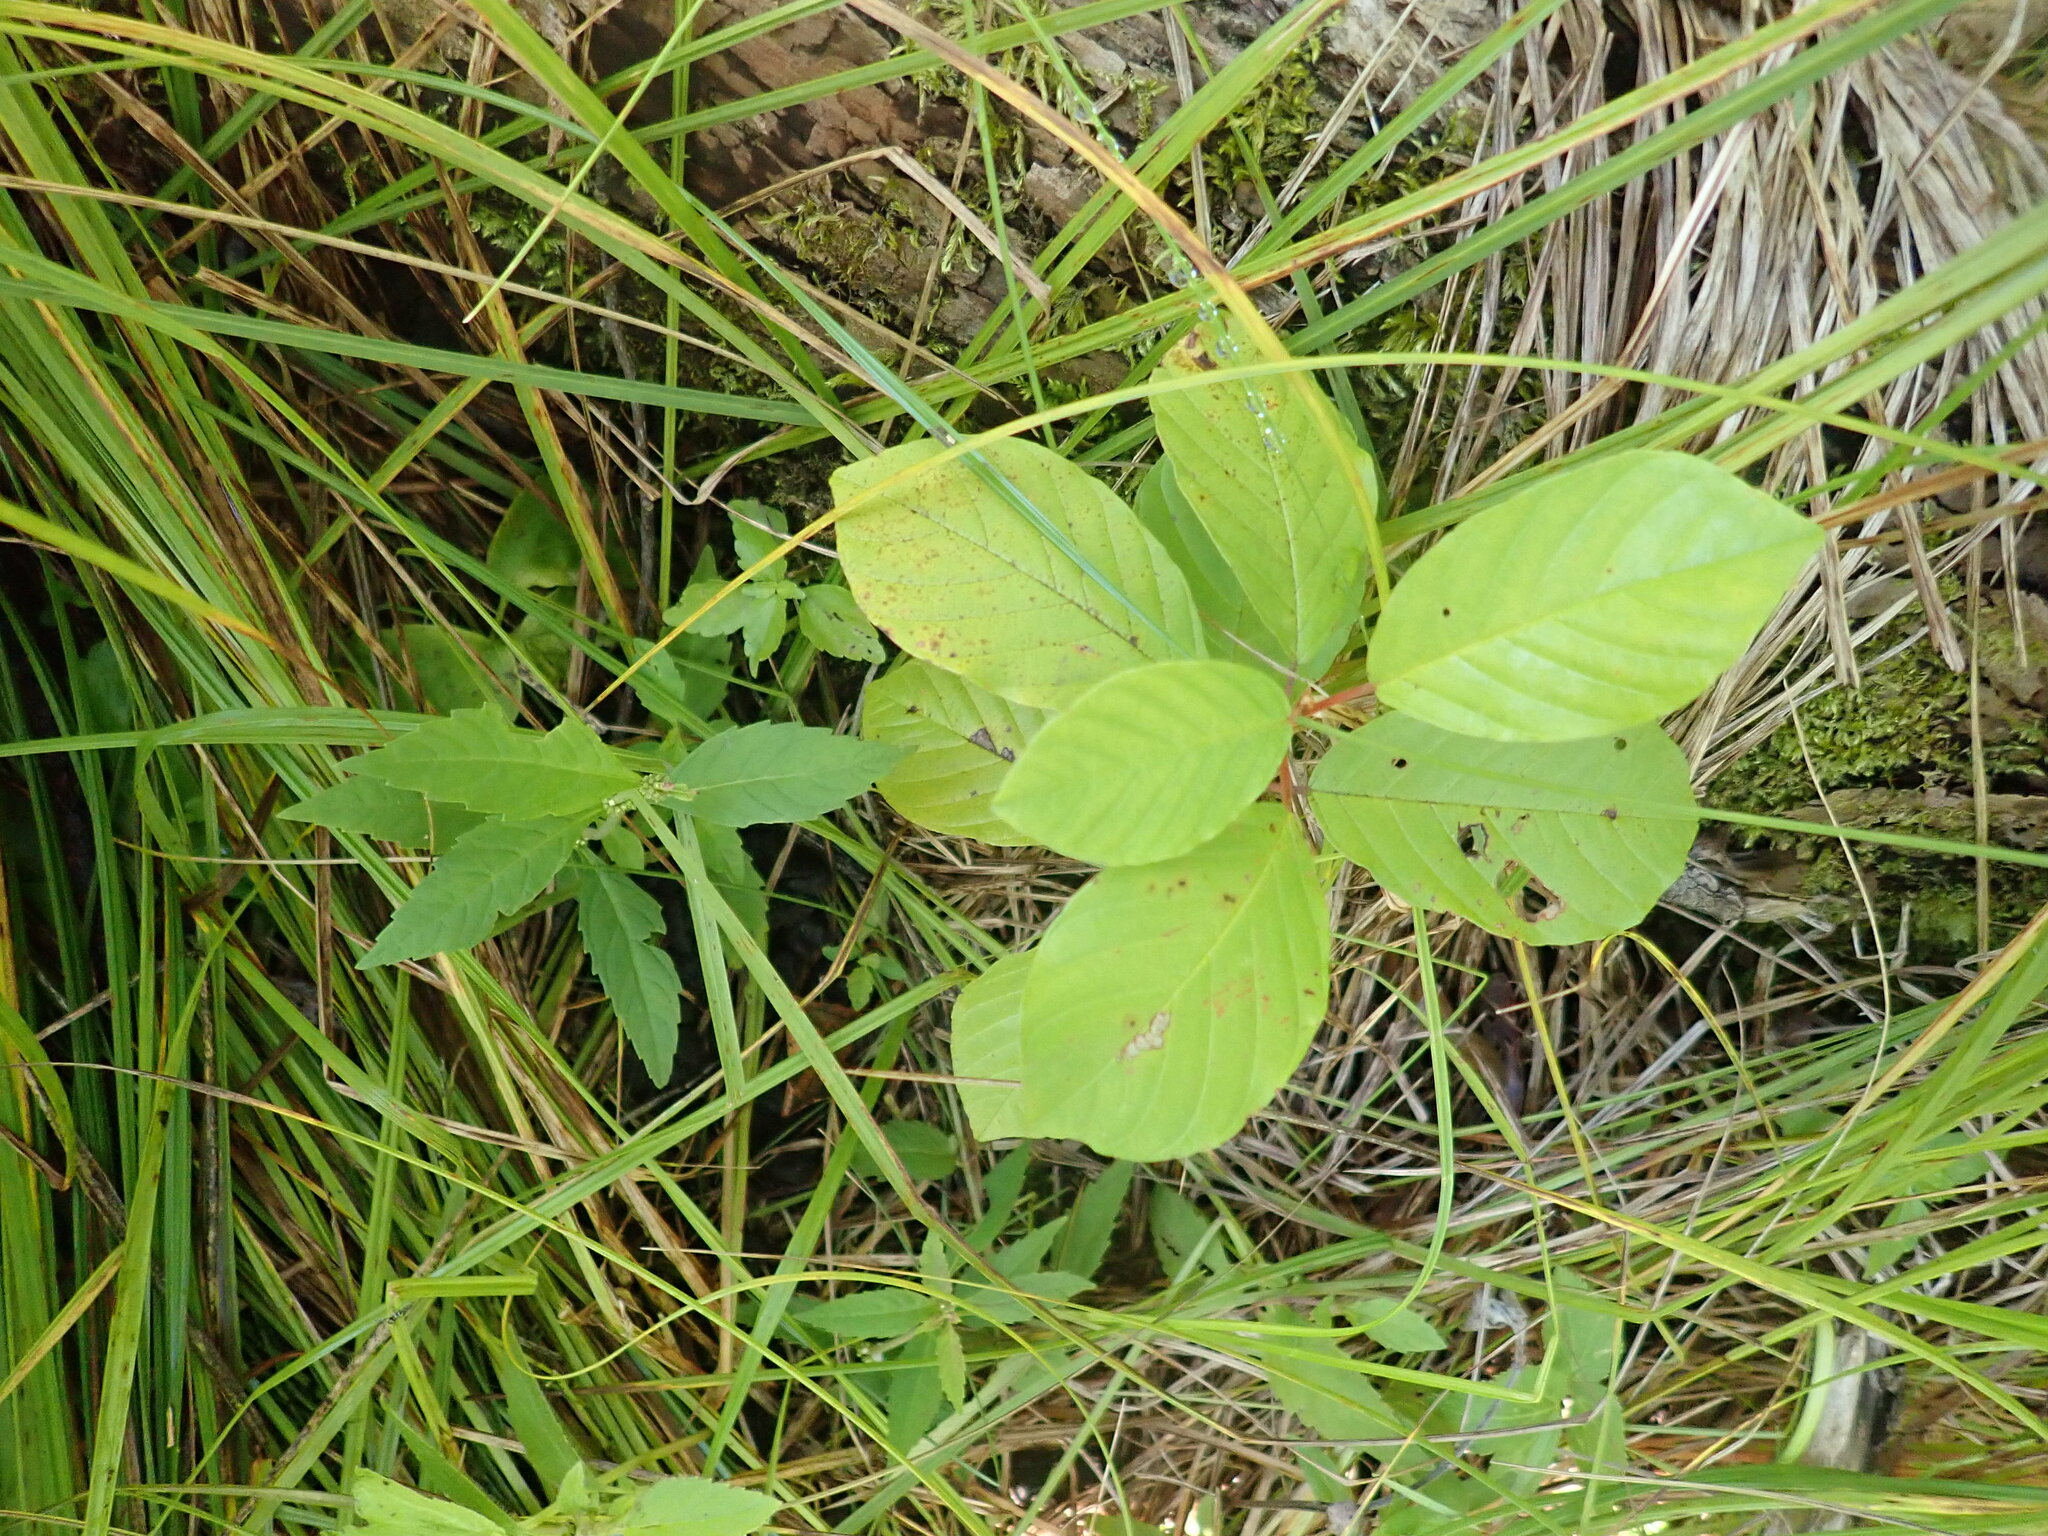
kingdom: Plantae
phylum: Tracheophyta
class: Magnoliopsida
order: Rosales
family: Rhamnaceae
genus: Frangula
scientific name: Frangula alnus
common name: Alder buckthorn
